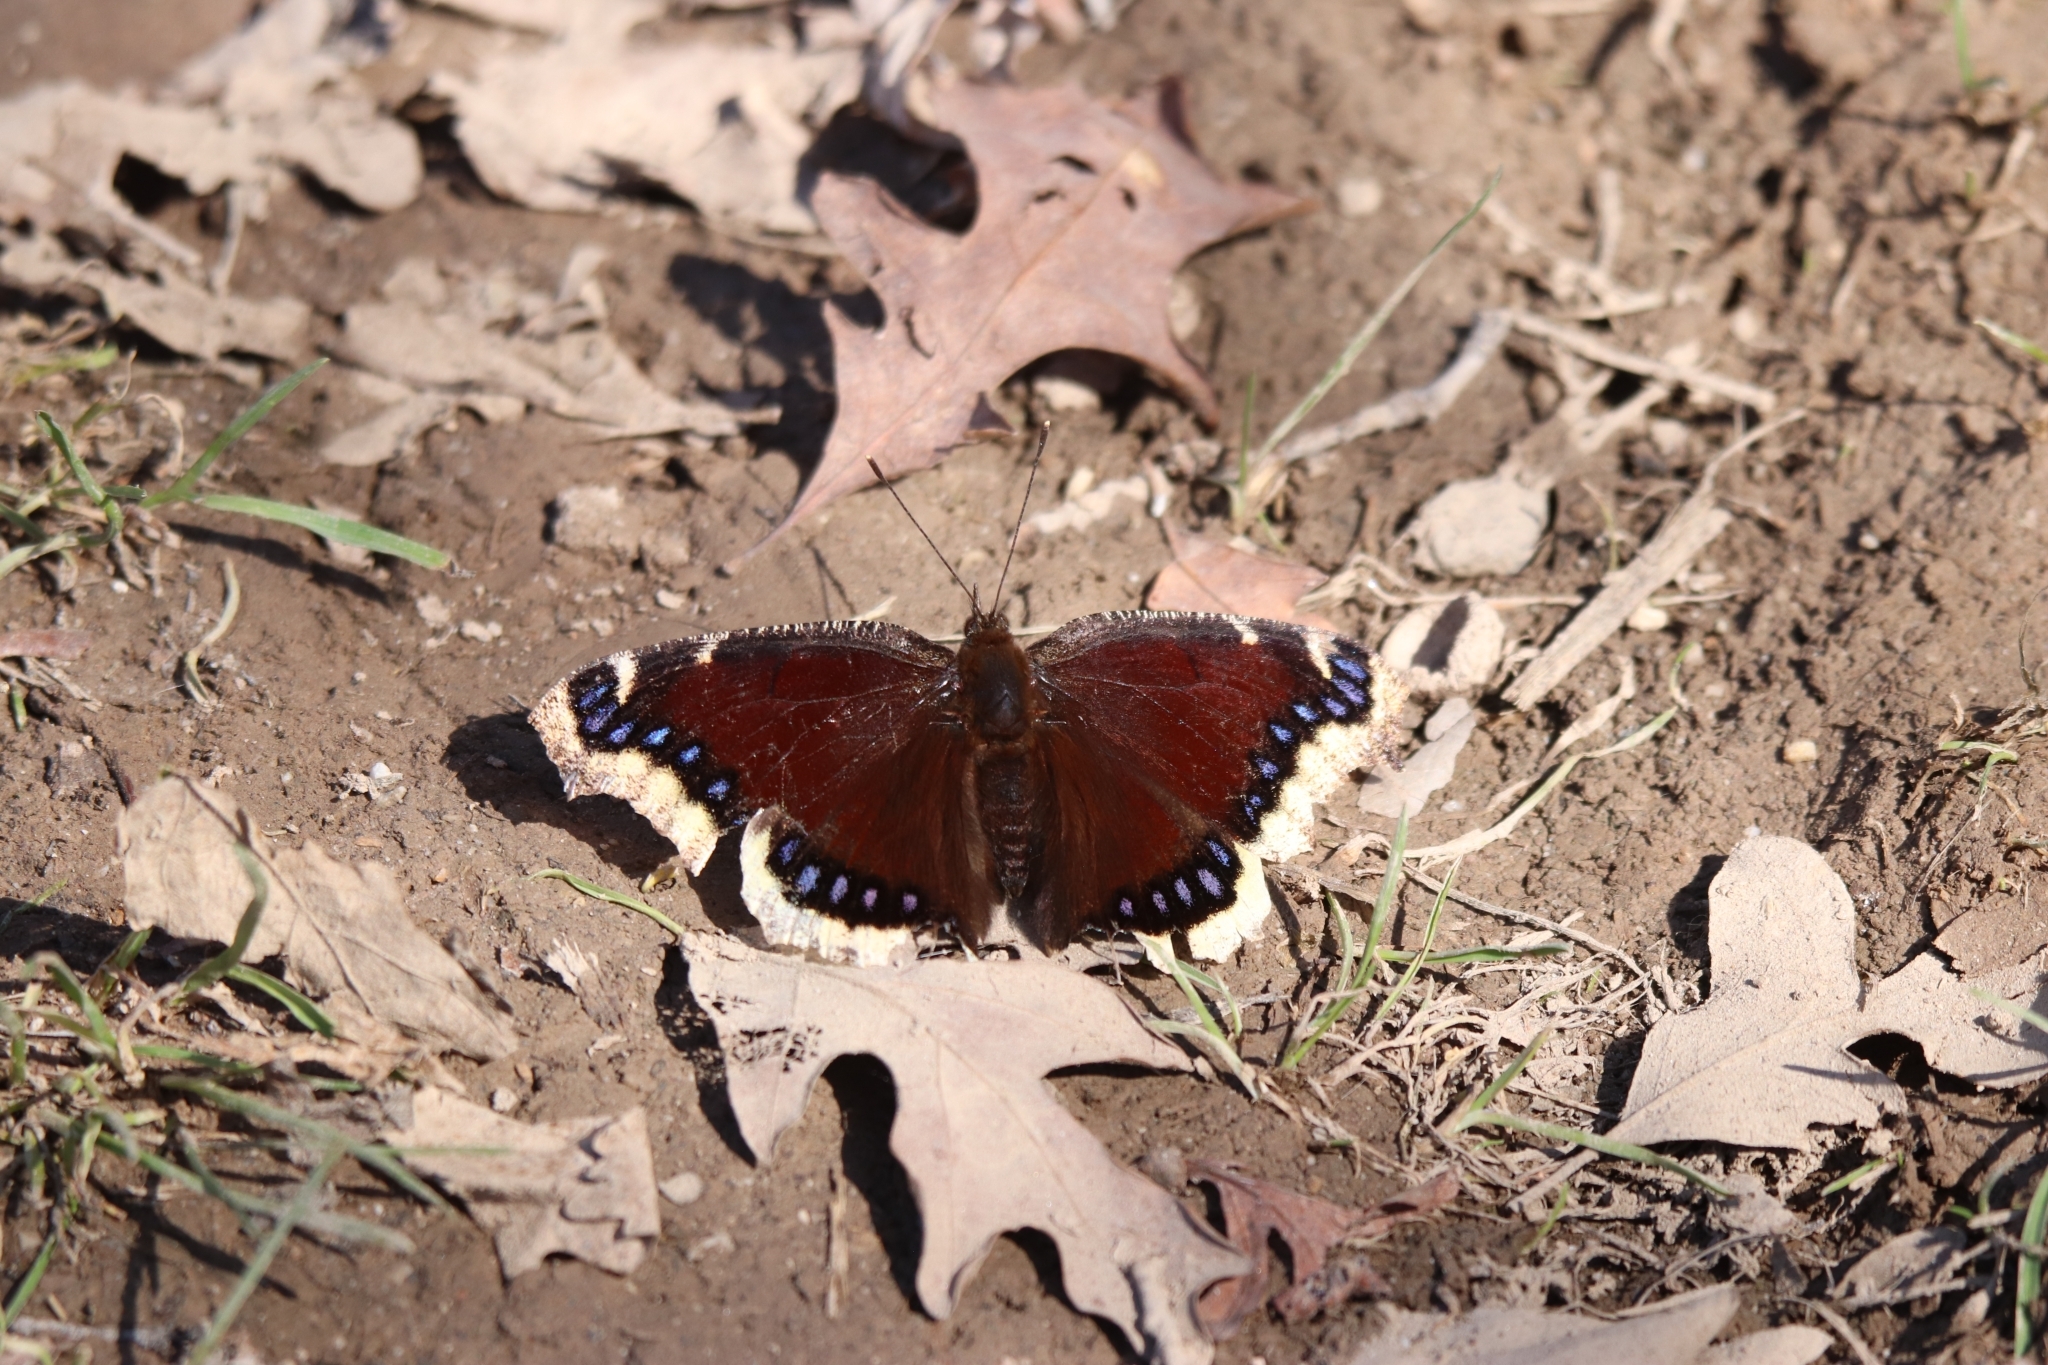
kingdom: Animalia
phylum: Arthropoda
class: Insecta
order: Lepidoptera
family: Nymphalidae
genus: Nymphalis
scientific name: Nymphalis antiopa
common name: Camberwell beauty
